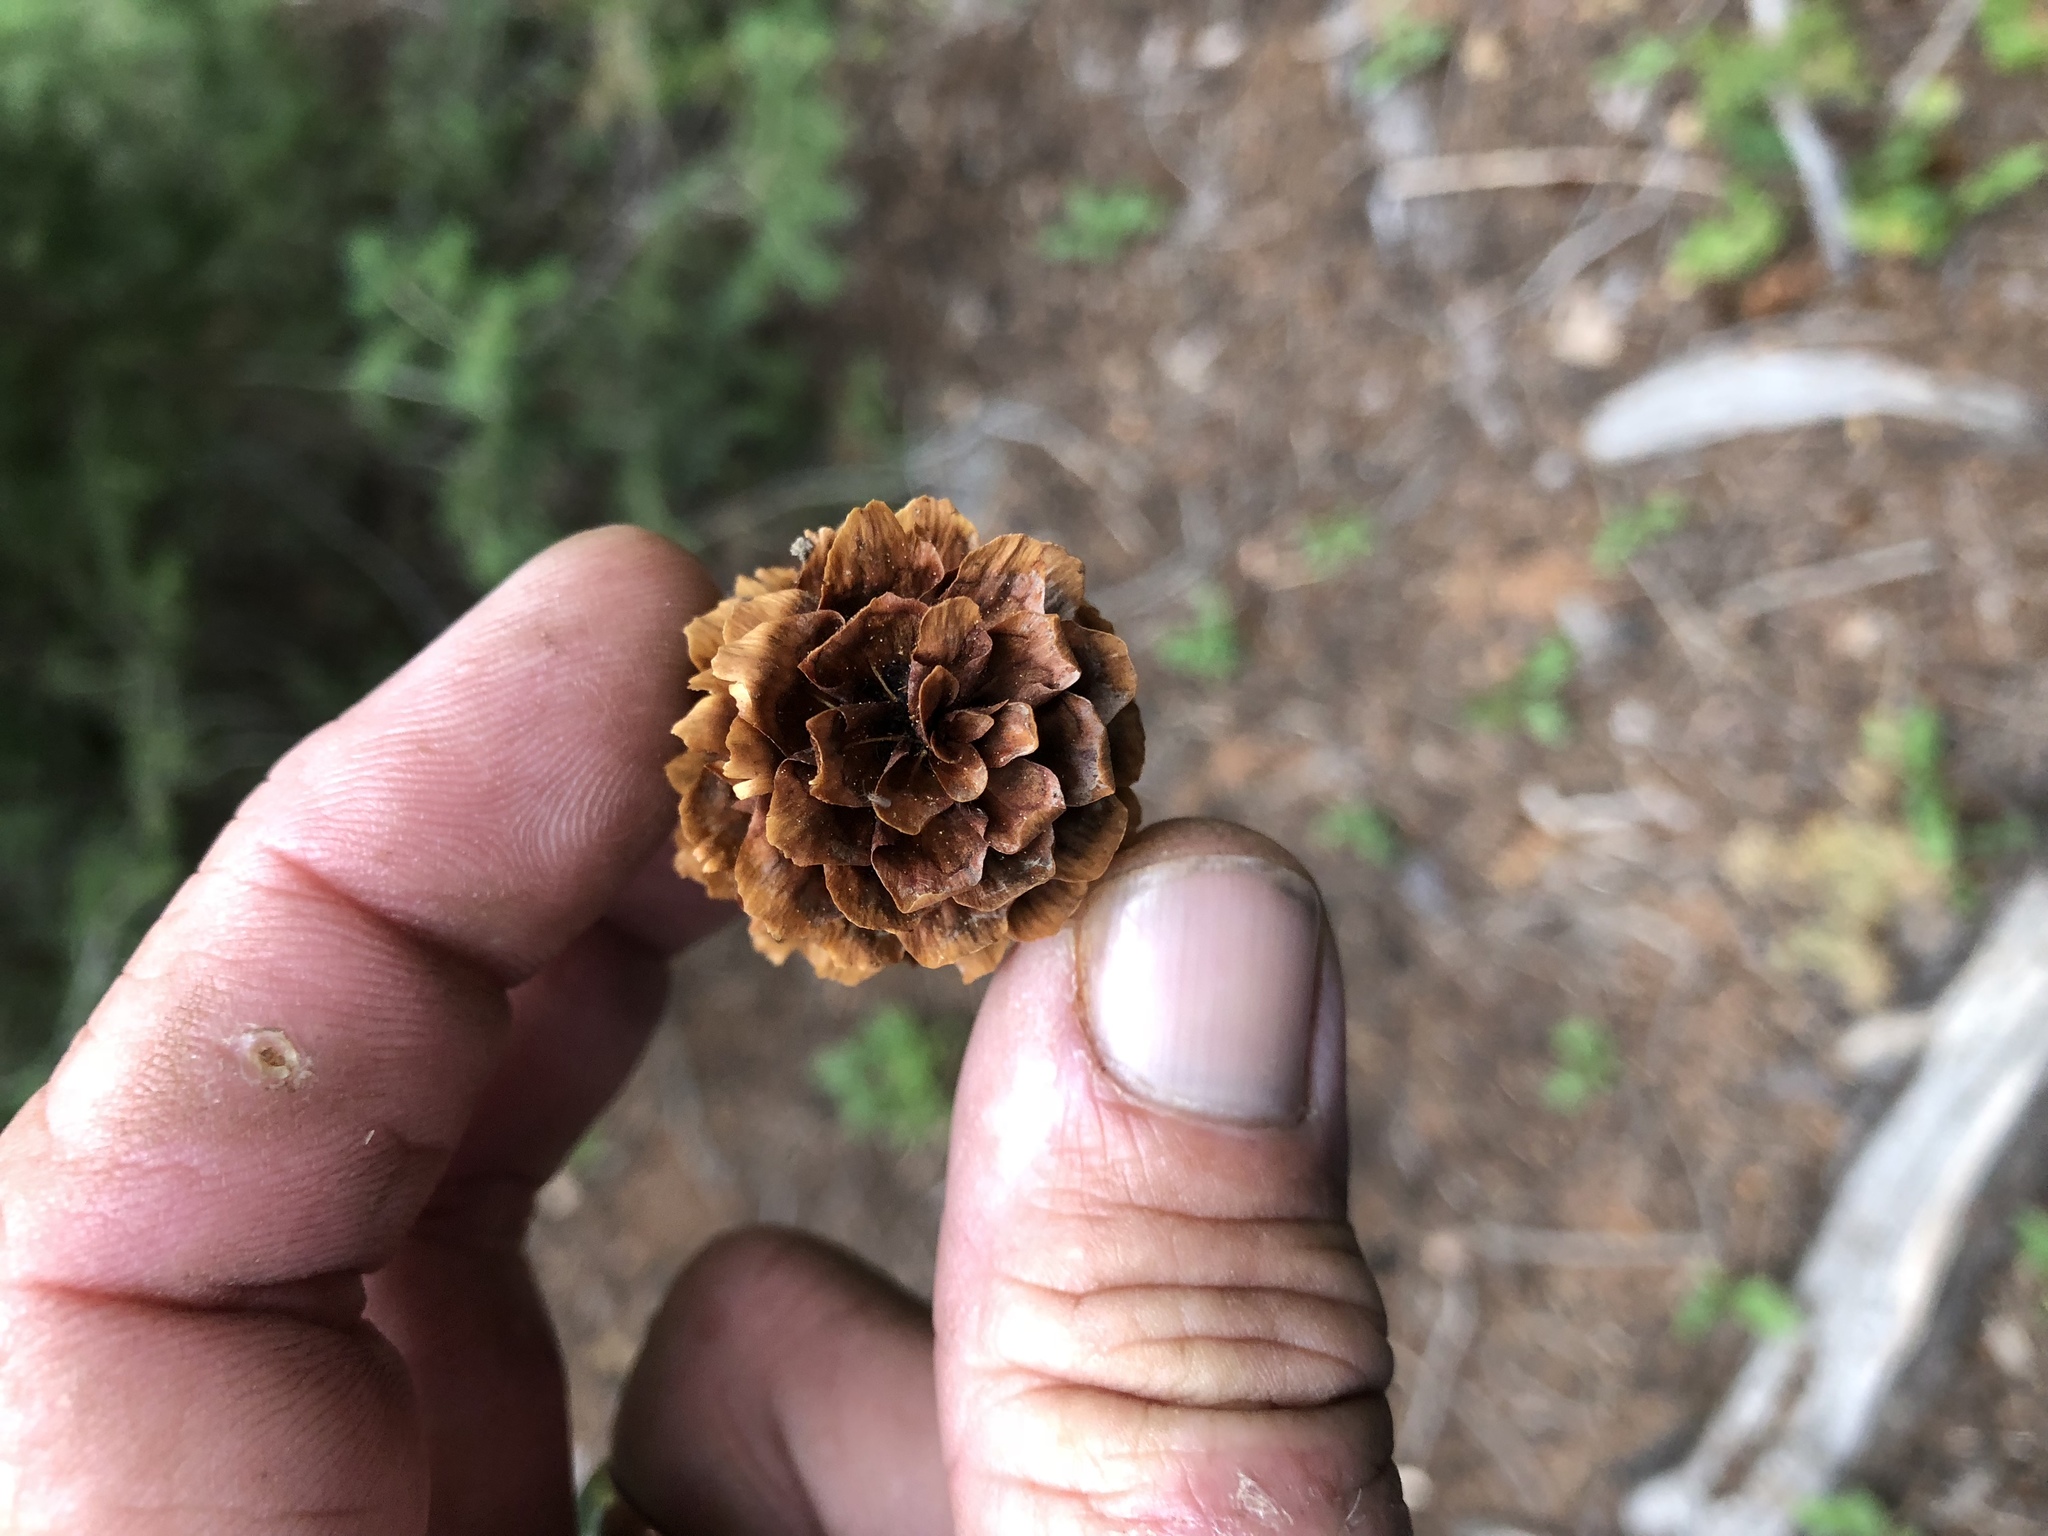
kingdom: Plantae
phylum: Tracheophyta
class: Pinopsida
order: Pinales
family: Pinaceae
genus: Picea
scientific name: Picea engelmannii
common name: Engelmann spruce
